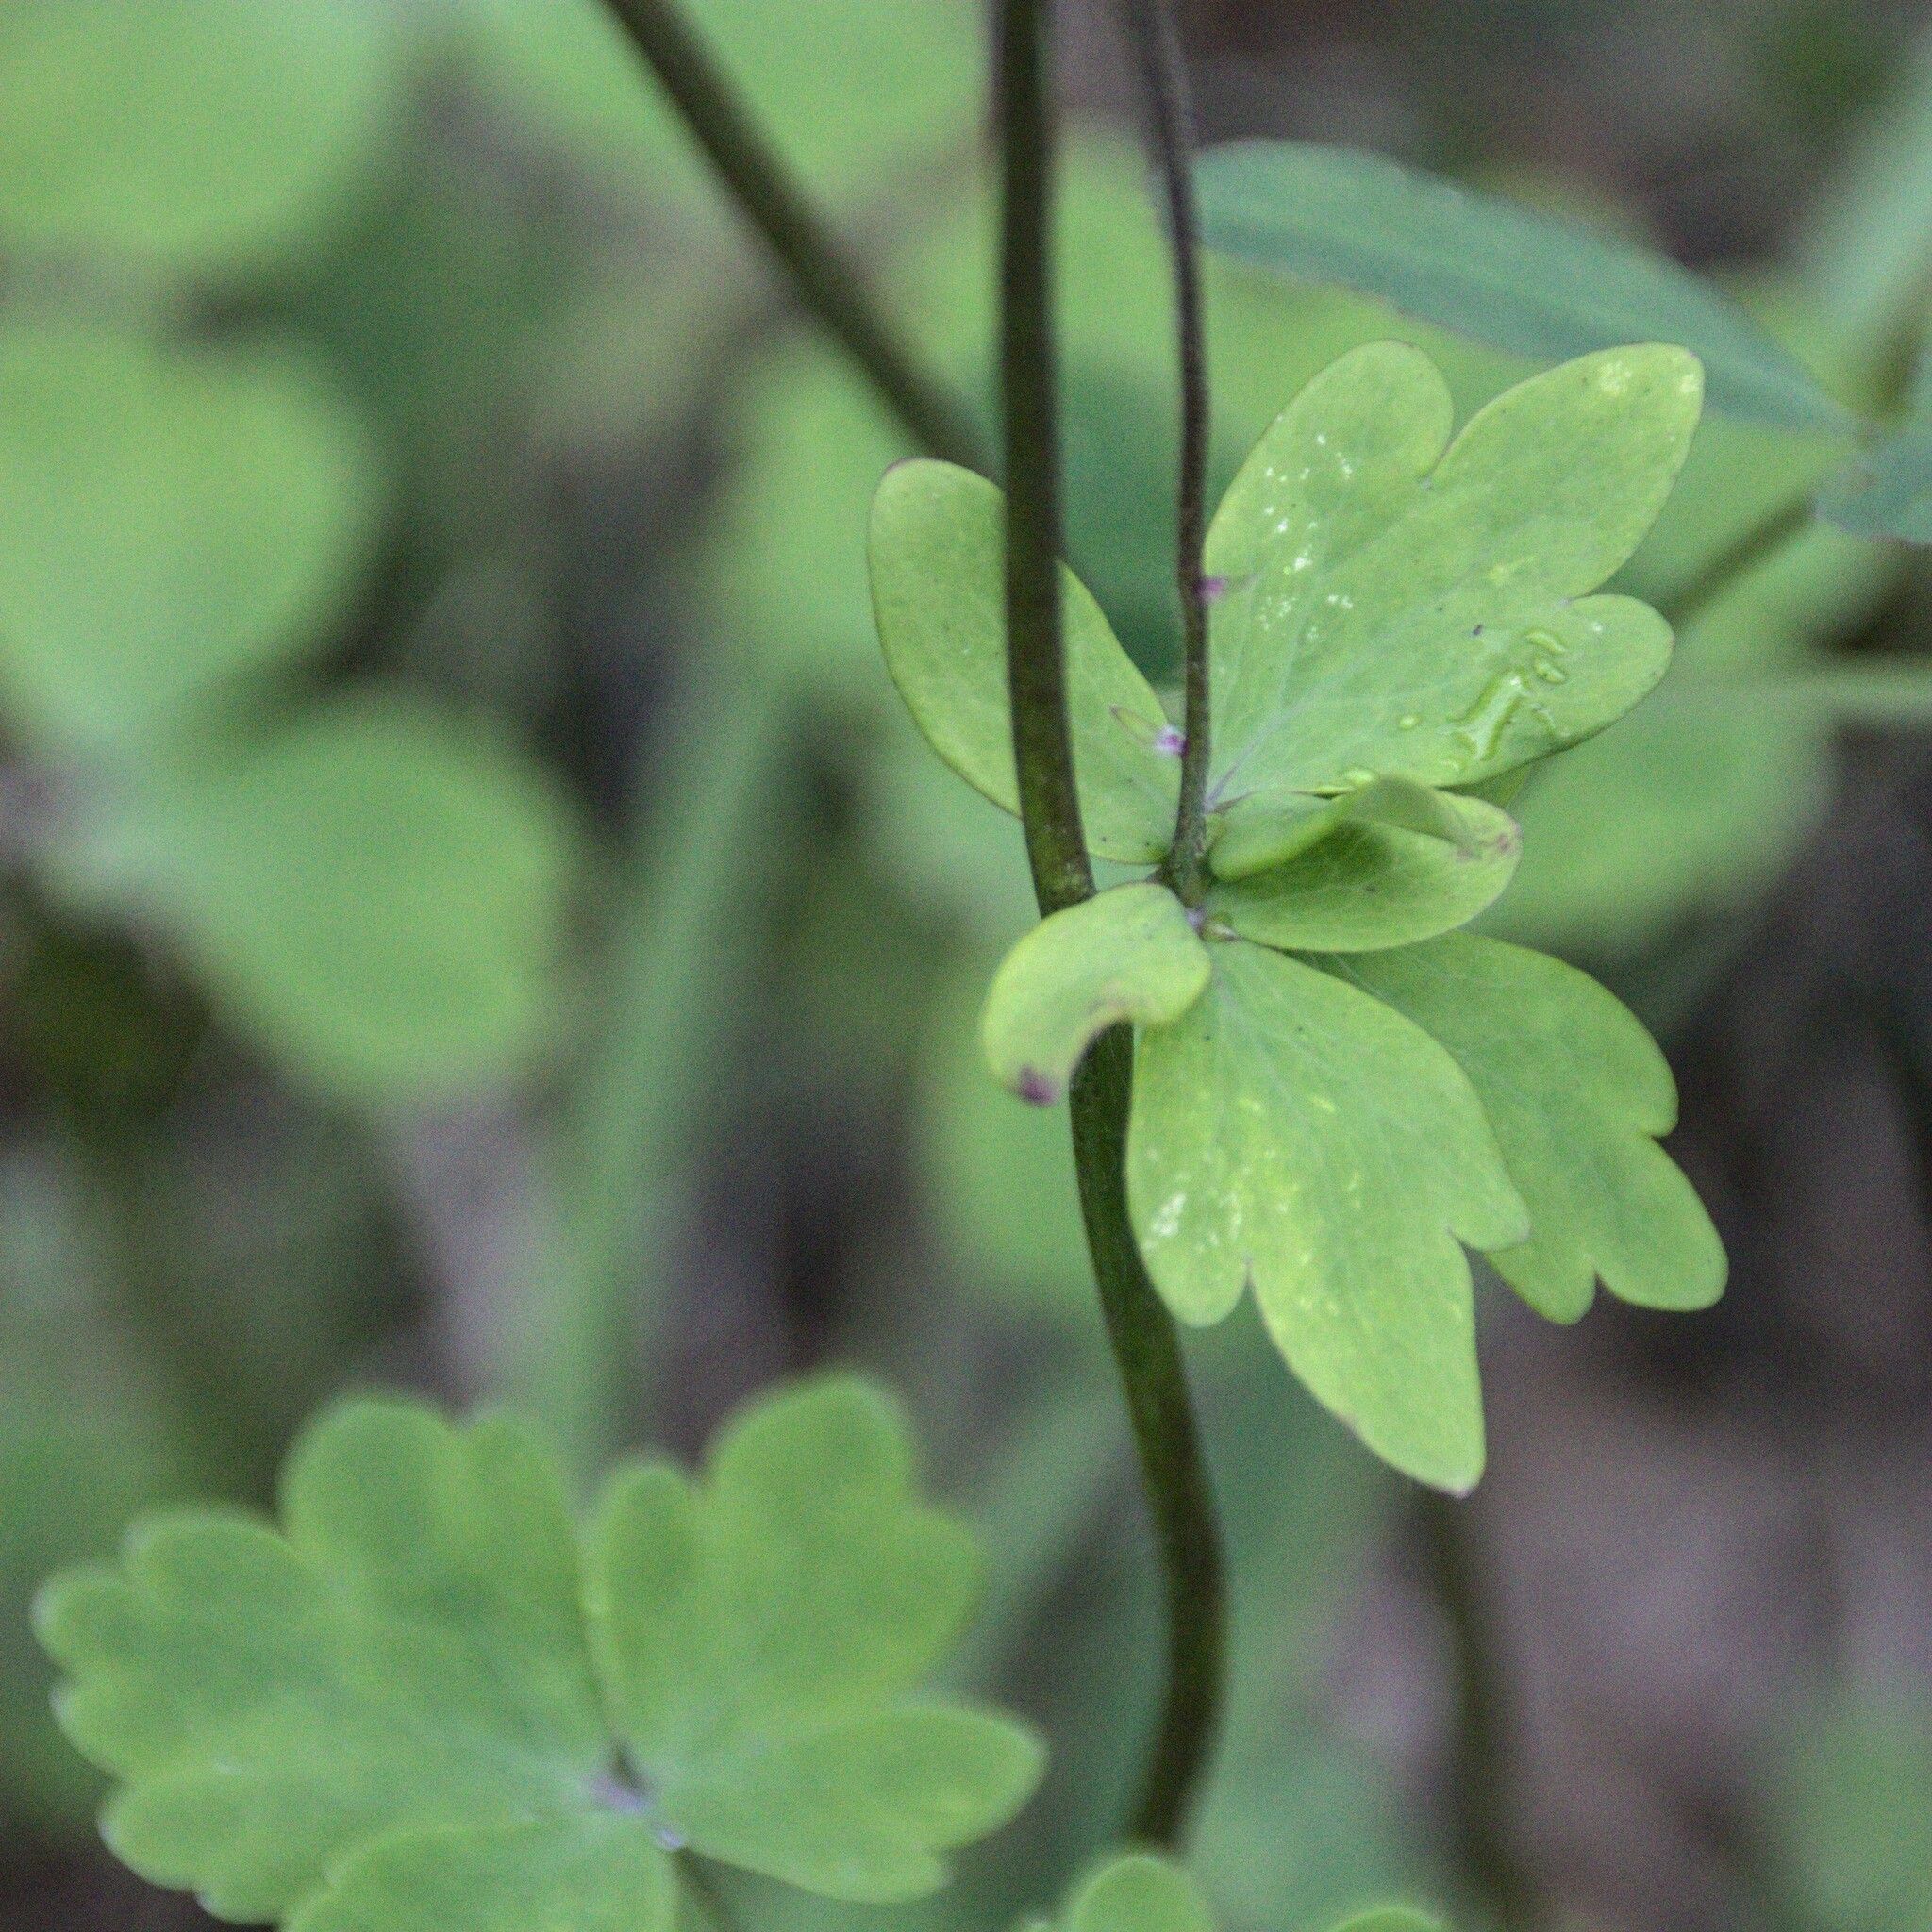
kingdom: Plantae
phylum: Tracheophyta
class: Magnoliopsida
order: Ranunculales
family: Ranunculaceae
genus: Aquilegia
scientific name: Aquilegia vulgaris
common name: Columbine
